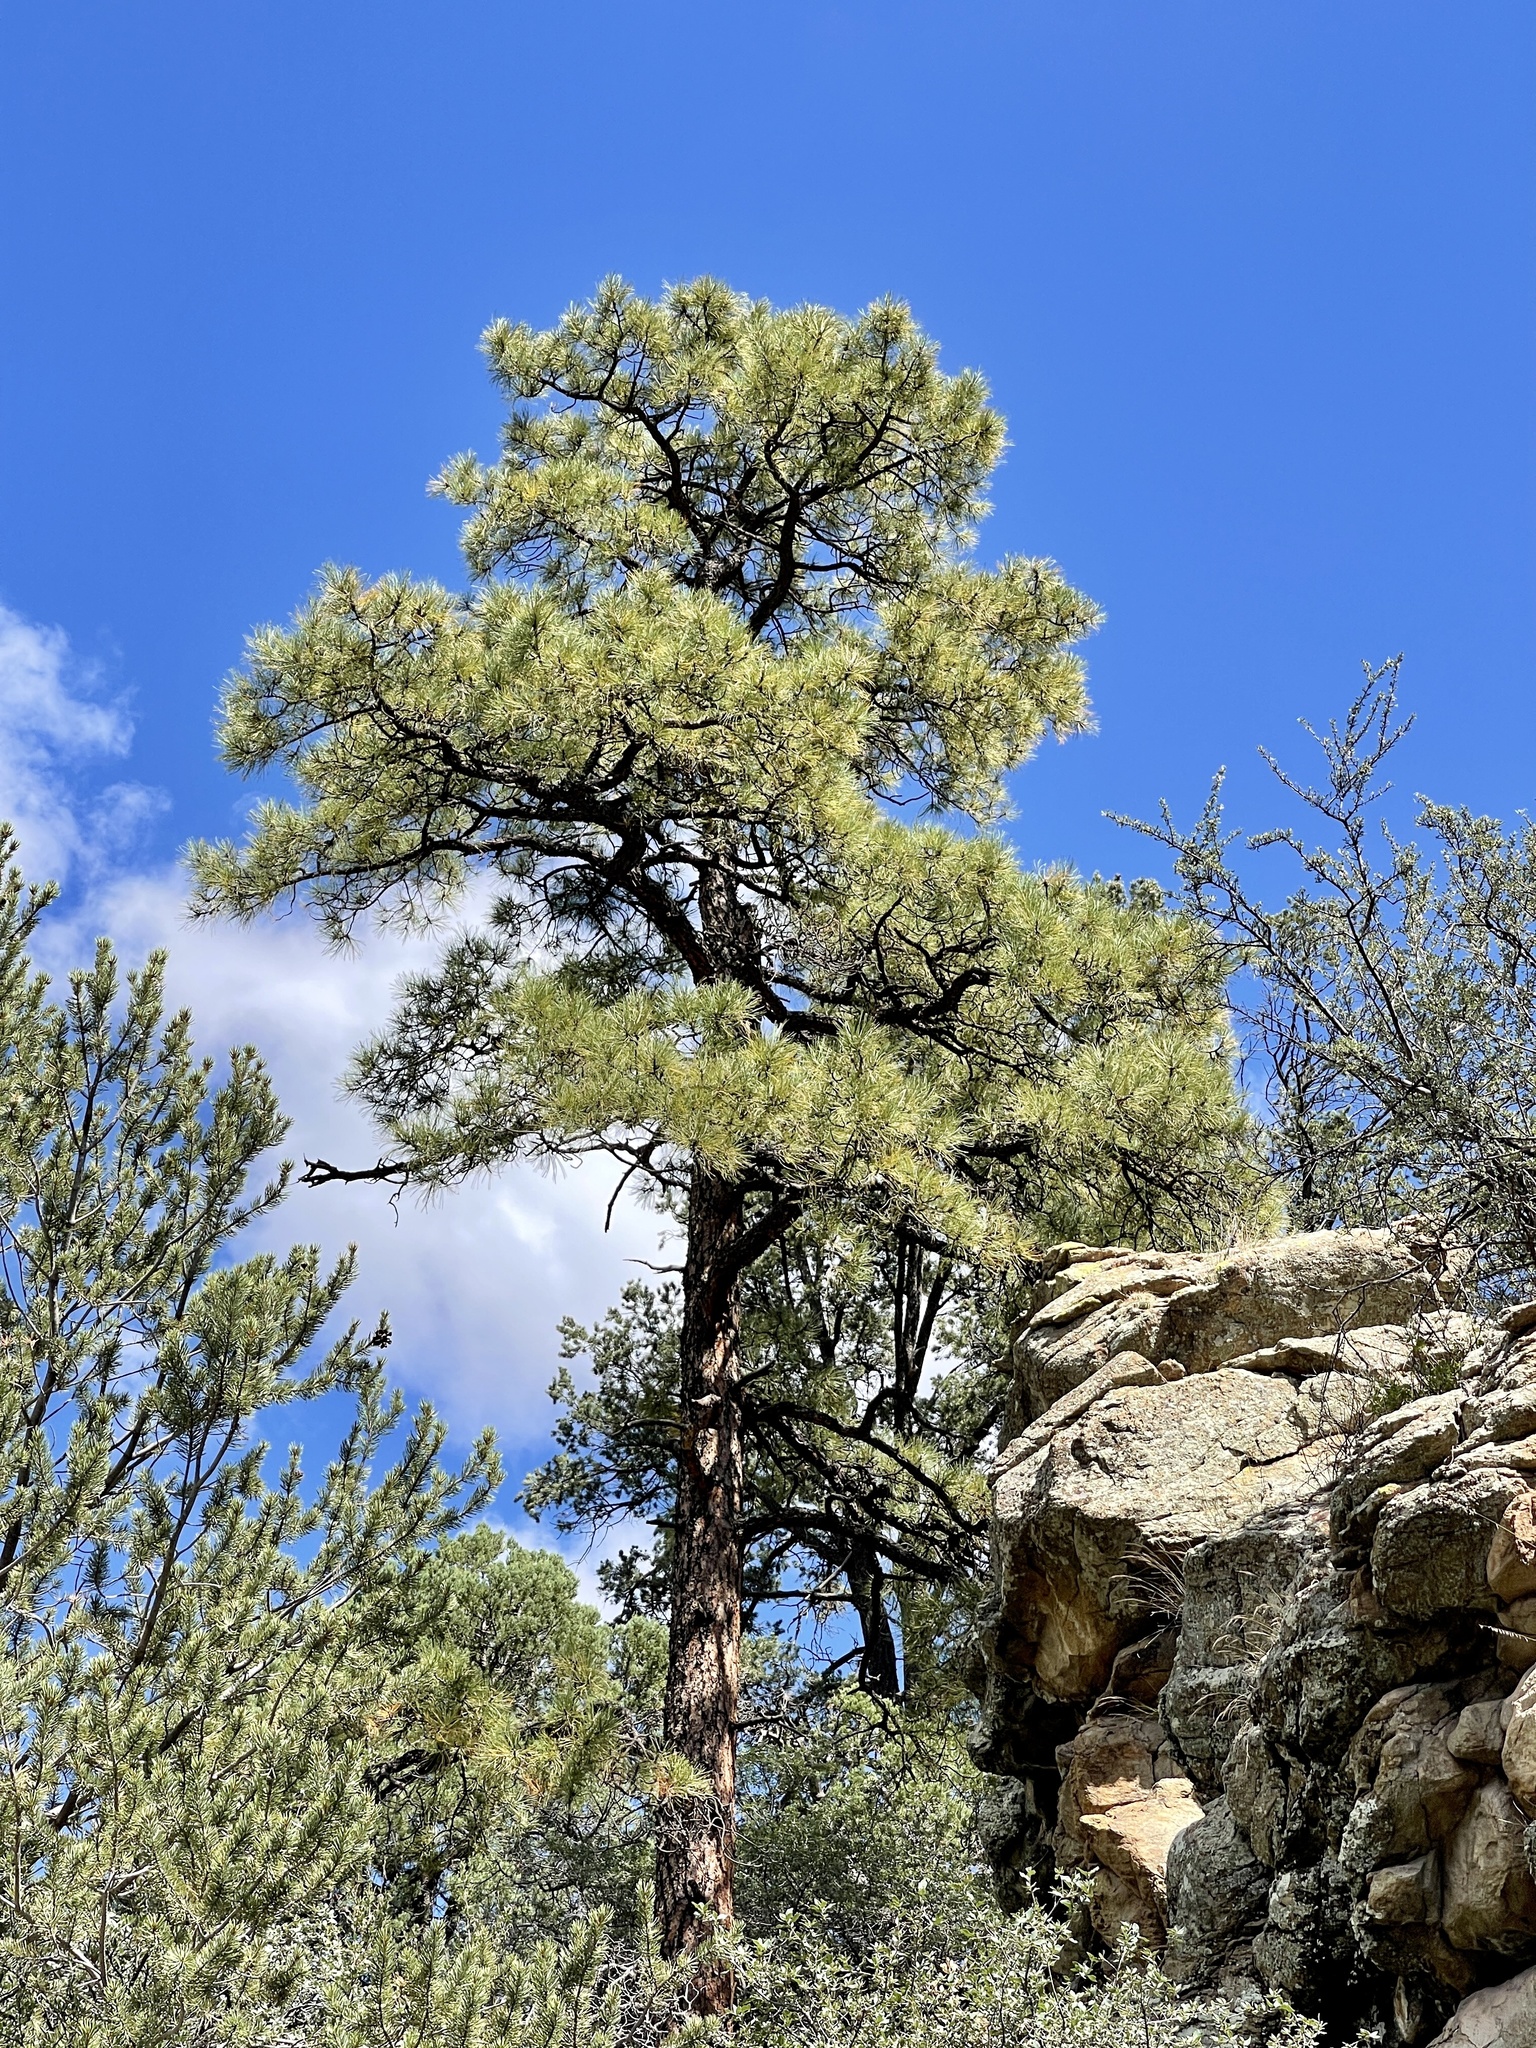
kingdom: Plantae
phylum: Tracheophyta
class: Pinopsida
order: Pinales
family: Pinaceae
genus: Pinus
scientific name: Pinus ponderosa
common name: Western yellow-pine
